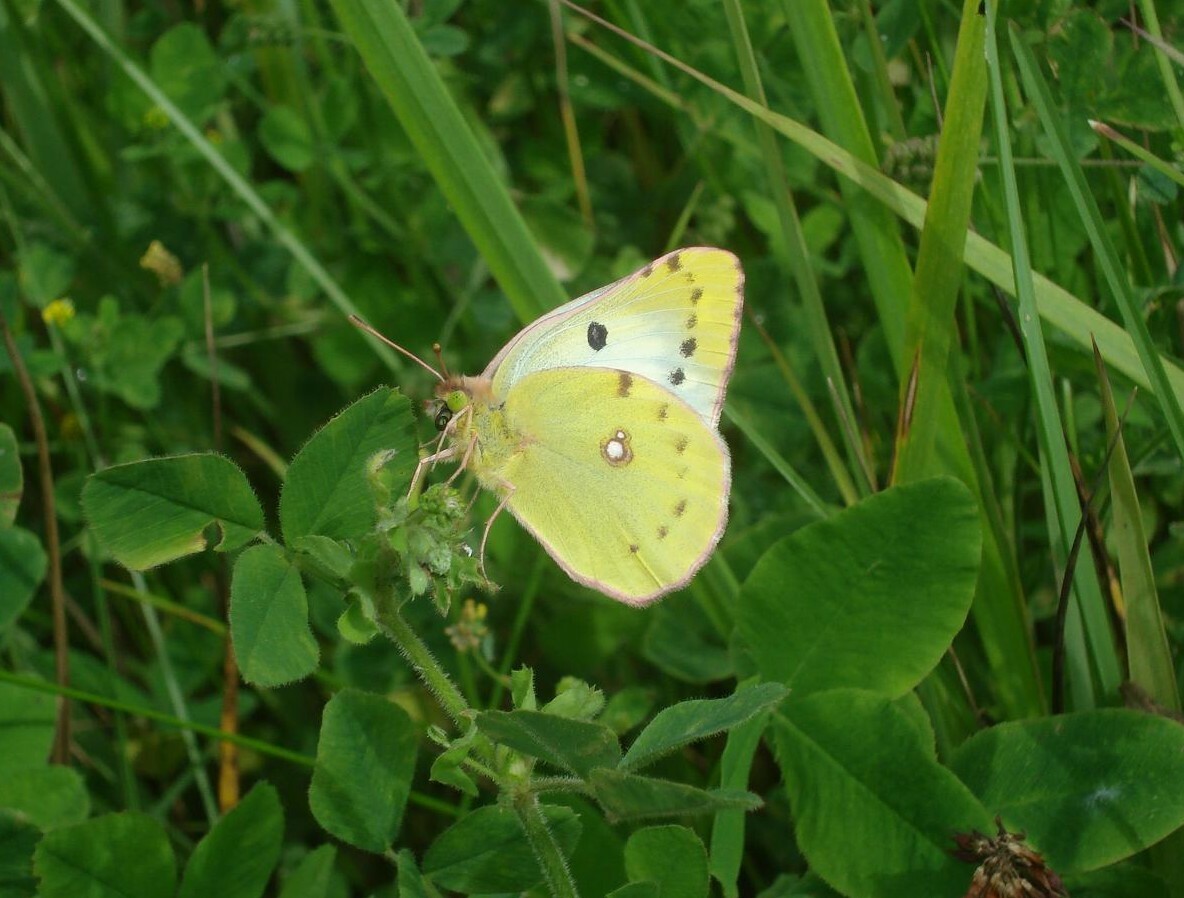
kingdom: Animalia
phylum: Arthropoda
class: Insecta
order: Lepidoptera
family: Pieridae
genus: Colias
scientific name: Colias hyale
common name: Pale clouded yellow
